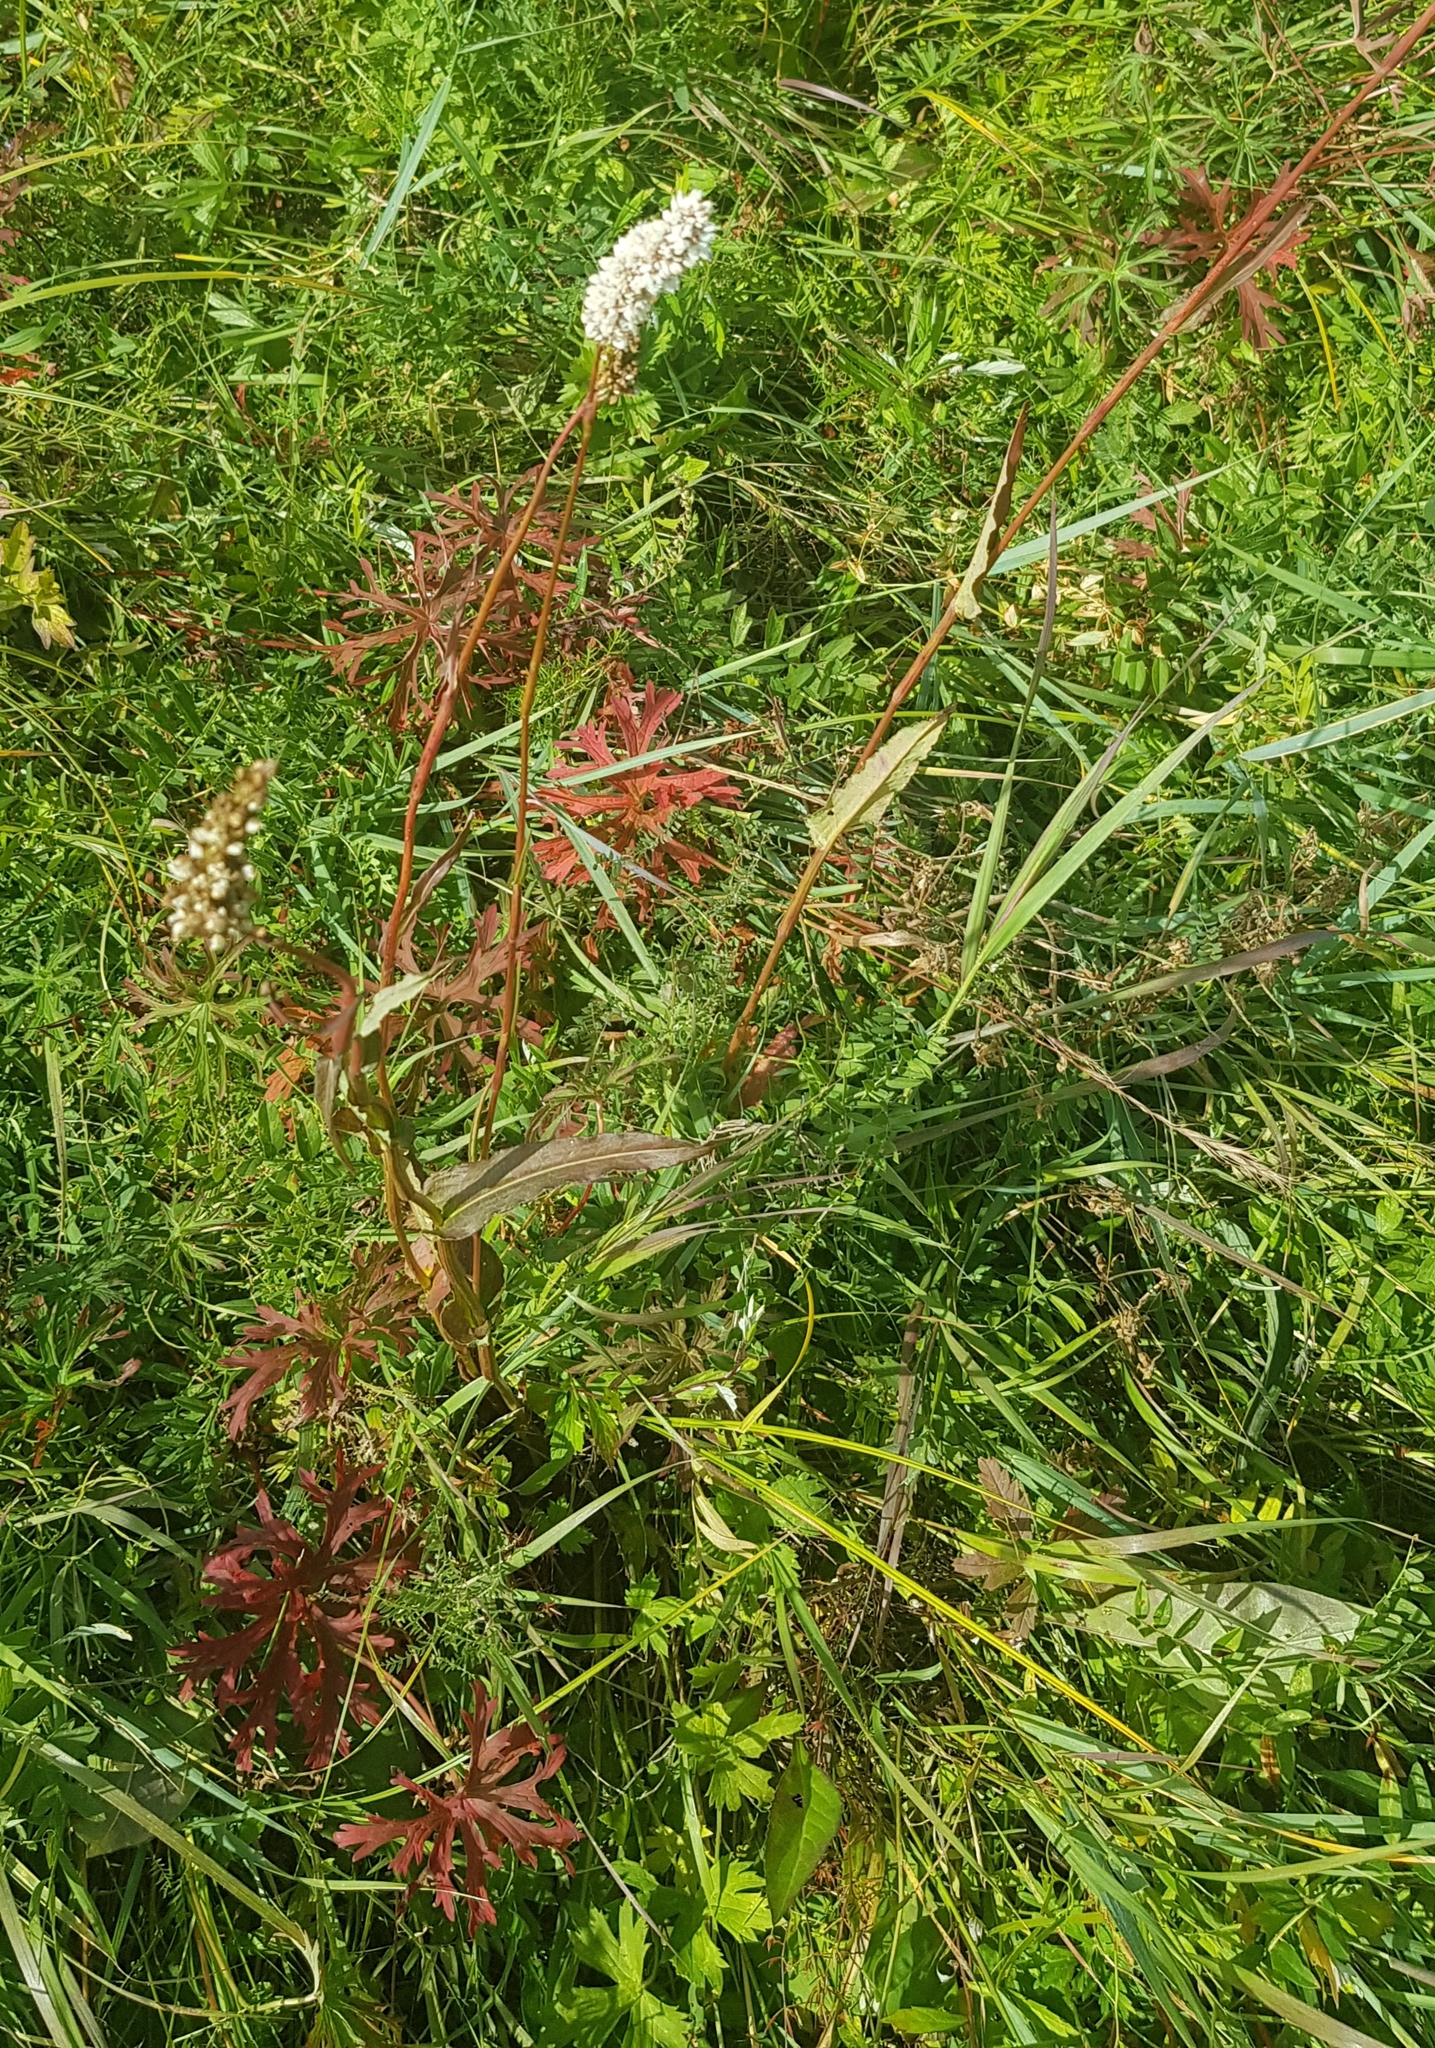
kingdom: Plantae
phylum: Tracheophyta
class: Magnoliopsida
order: Rosales
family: Rosaceae
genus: Poterium
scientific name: Poterium tenuifolium
